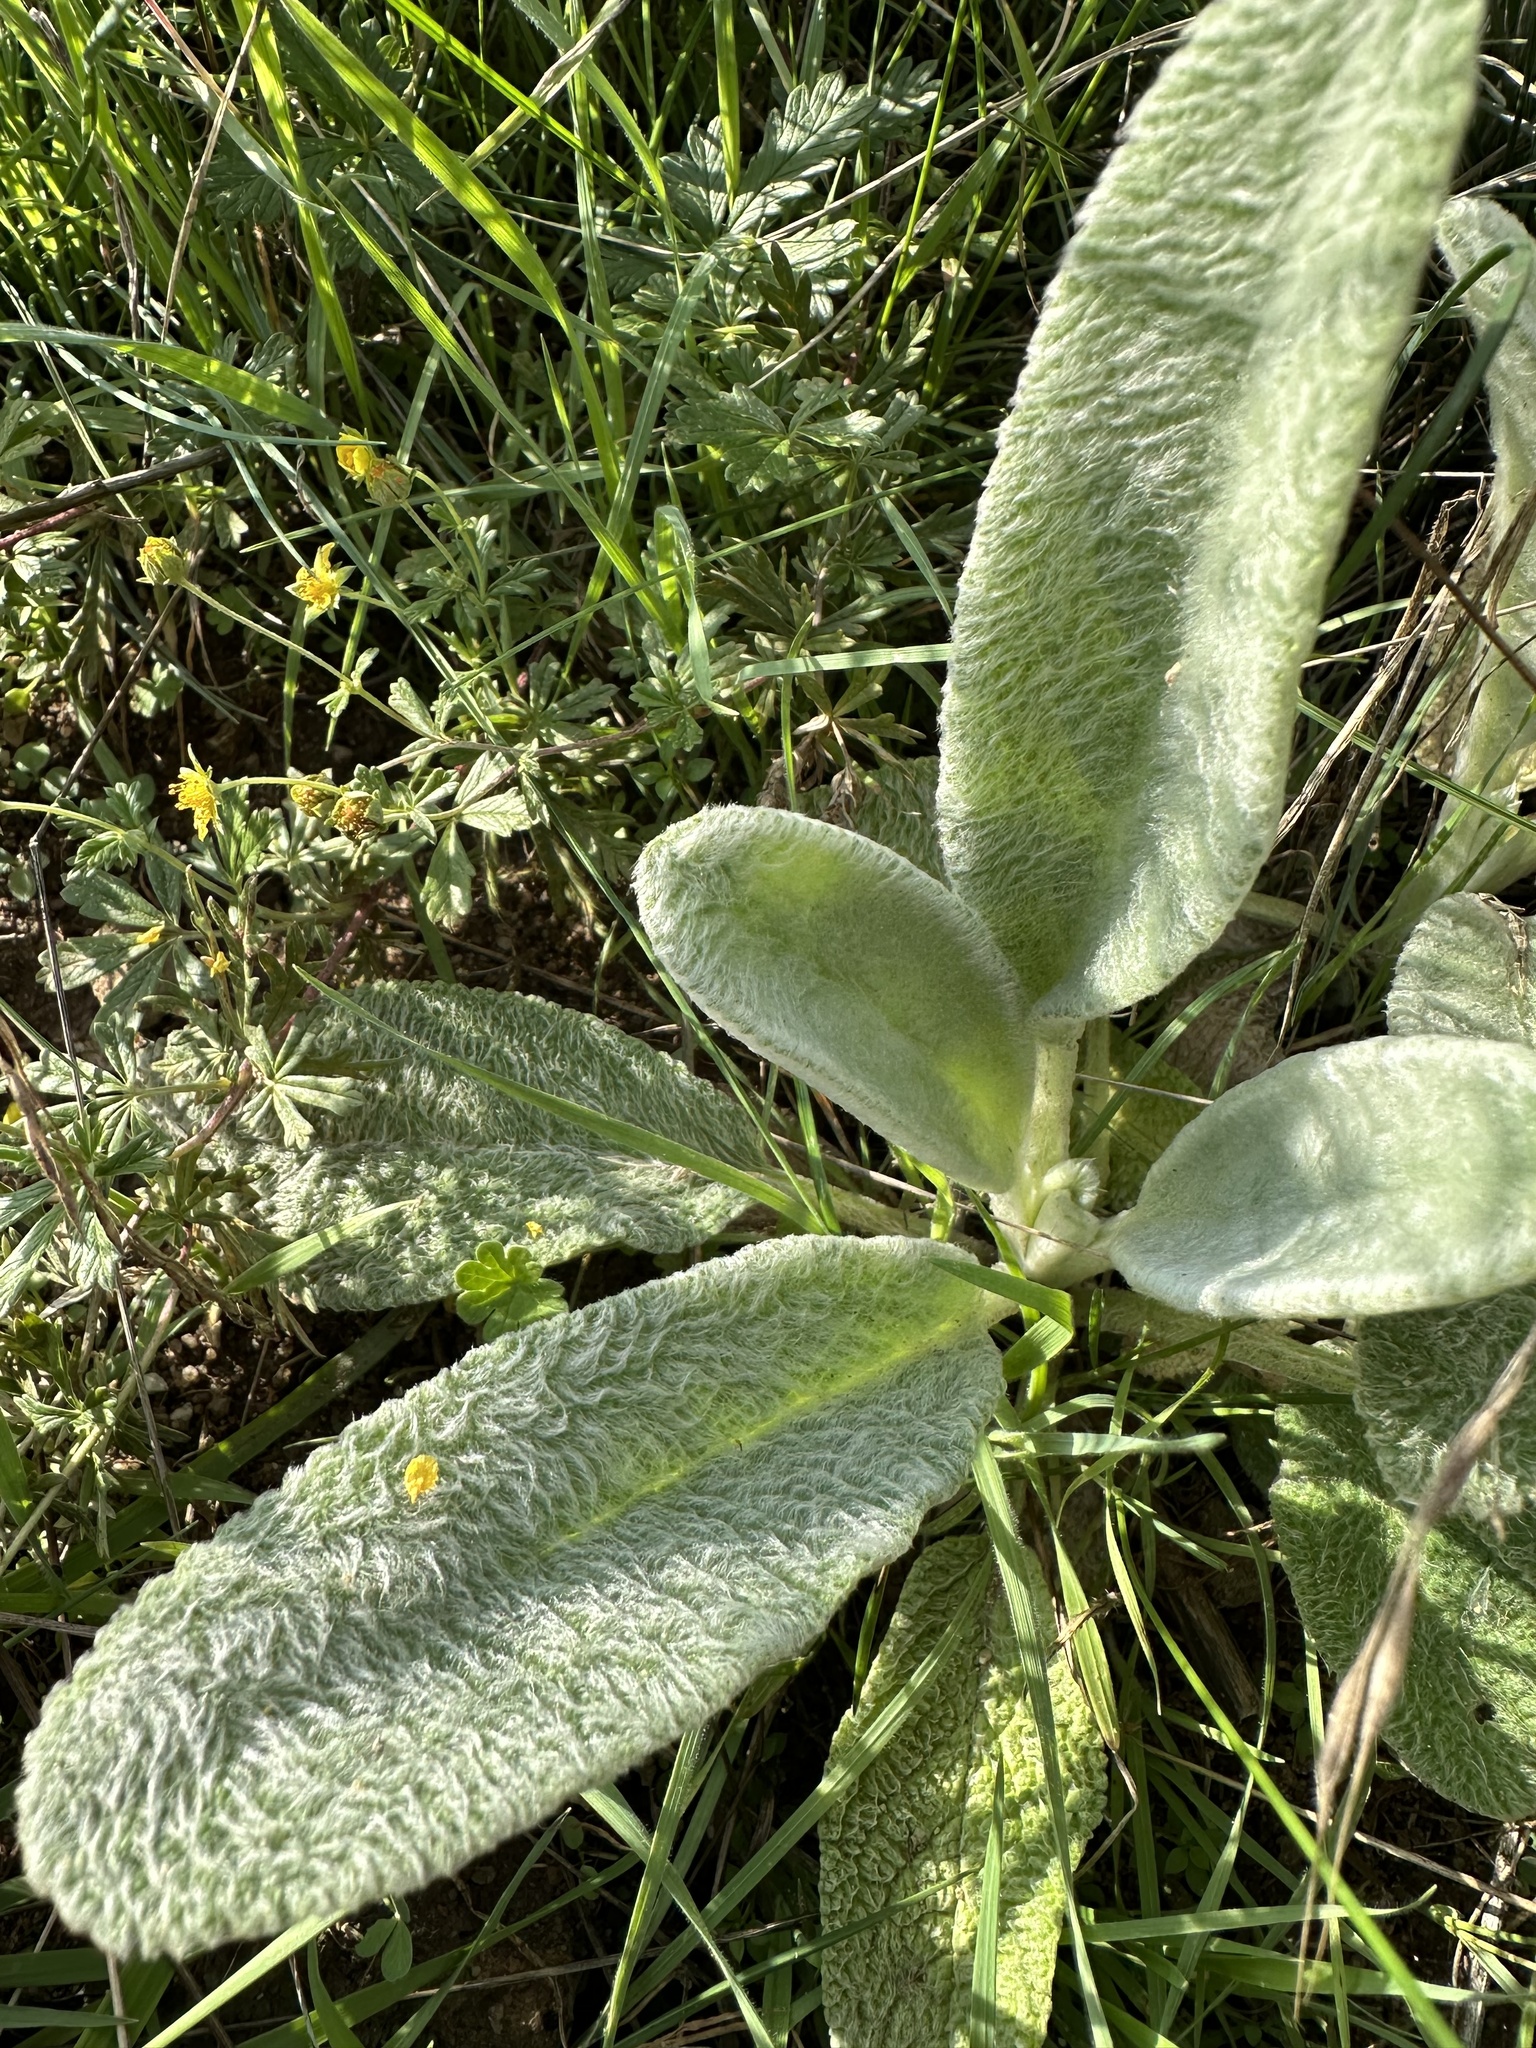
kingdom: Plantae
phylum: Tracheophyta
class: Magnoliopsida
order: Lamiales
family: Lamiaceae
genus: Stachys
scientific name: Stachys byzantina
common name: Lamb's-ear
